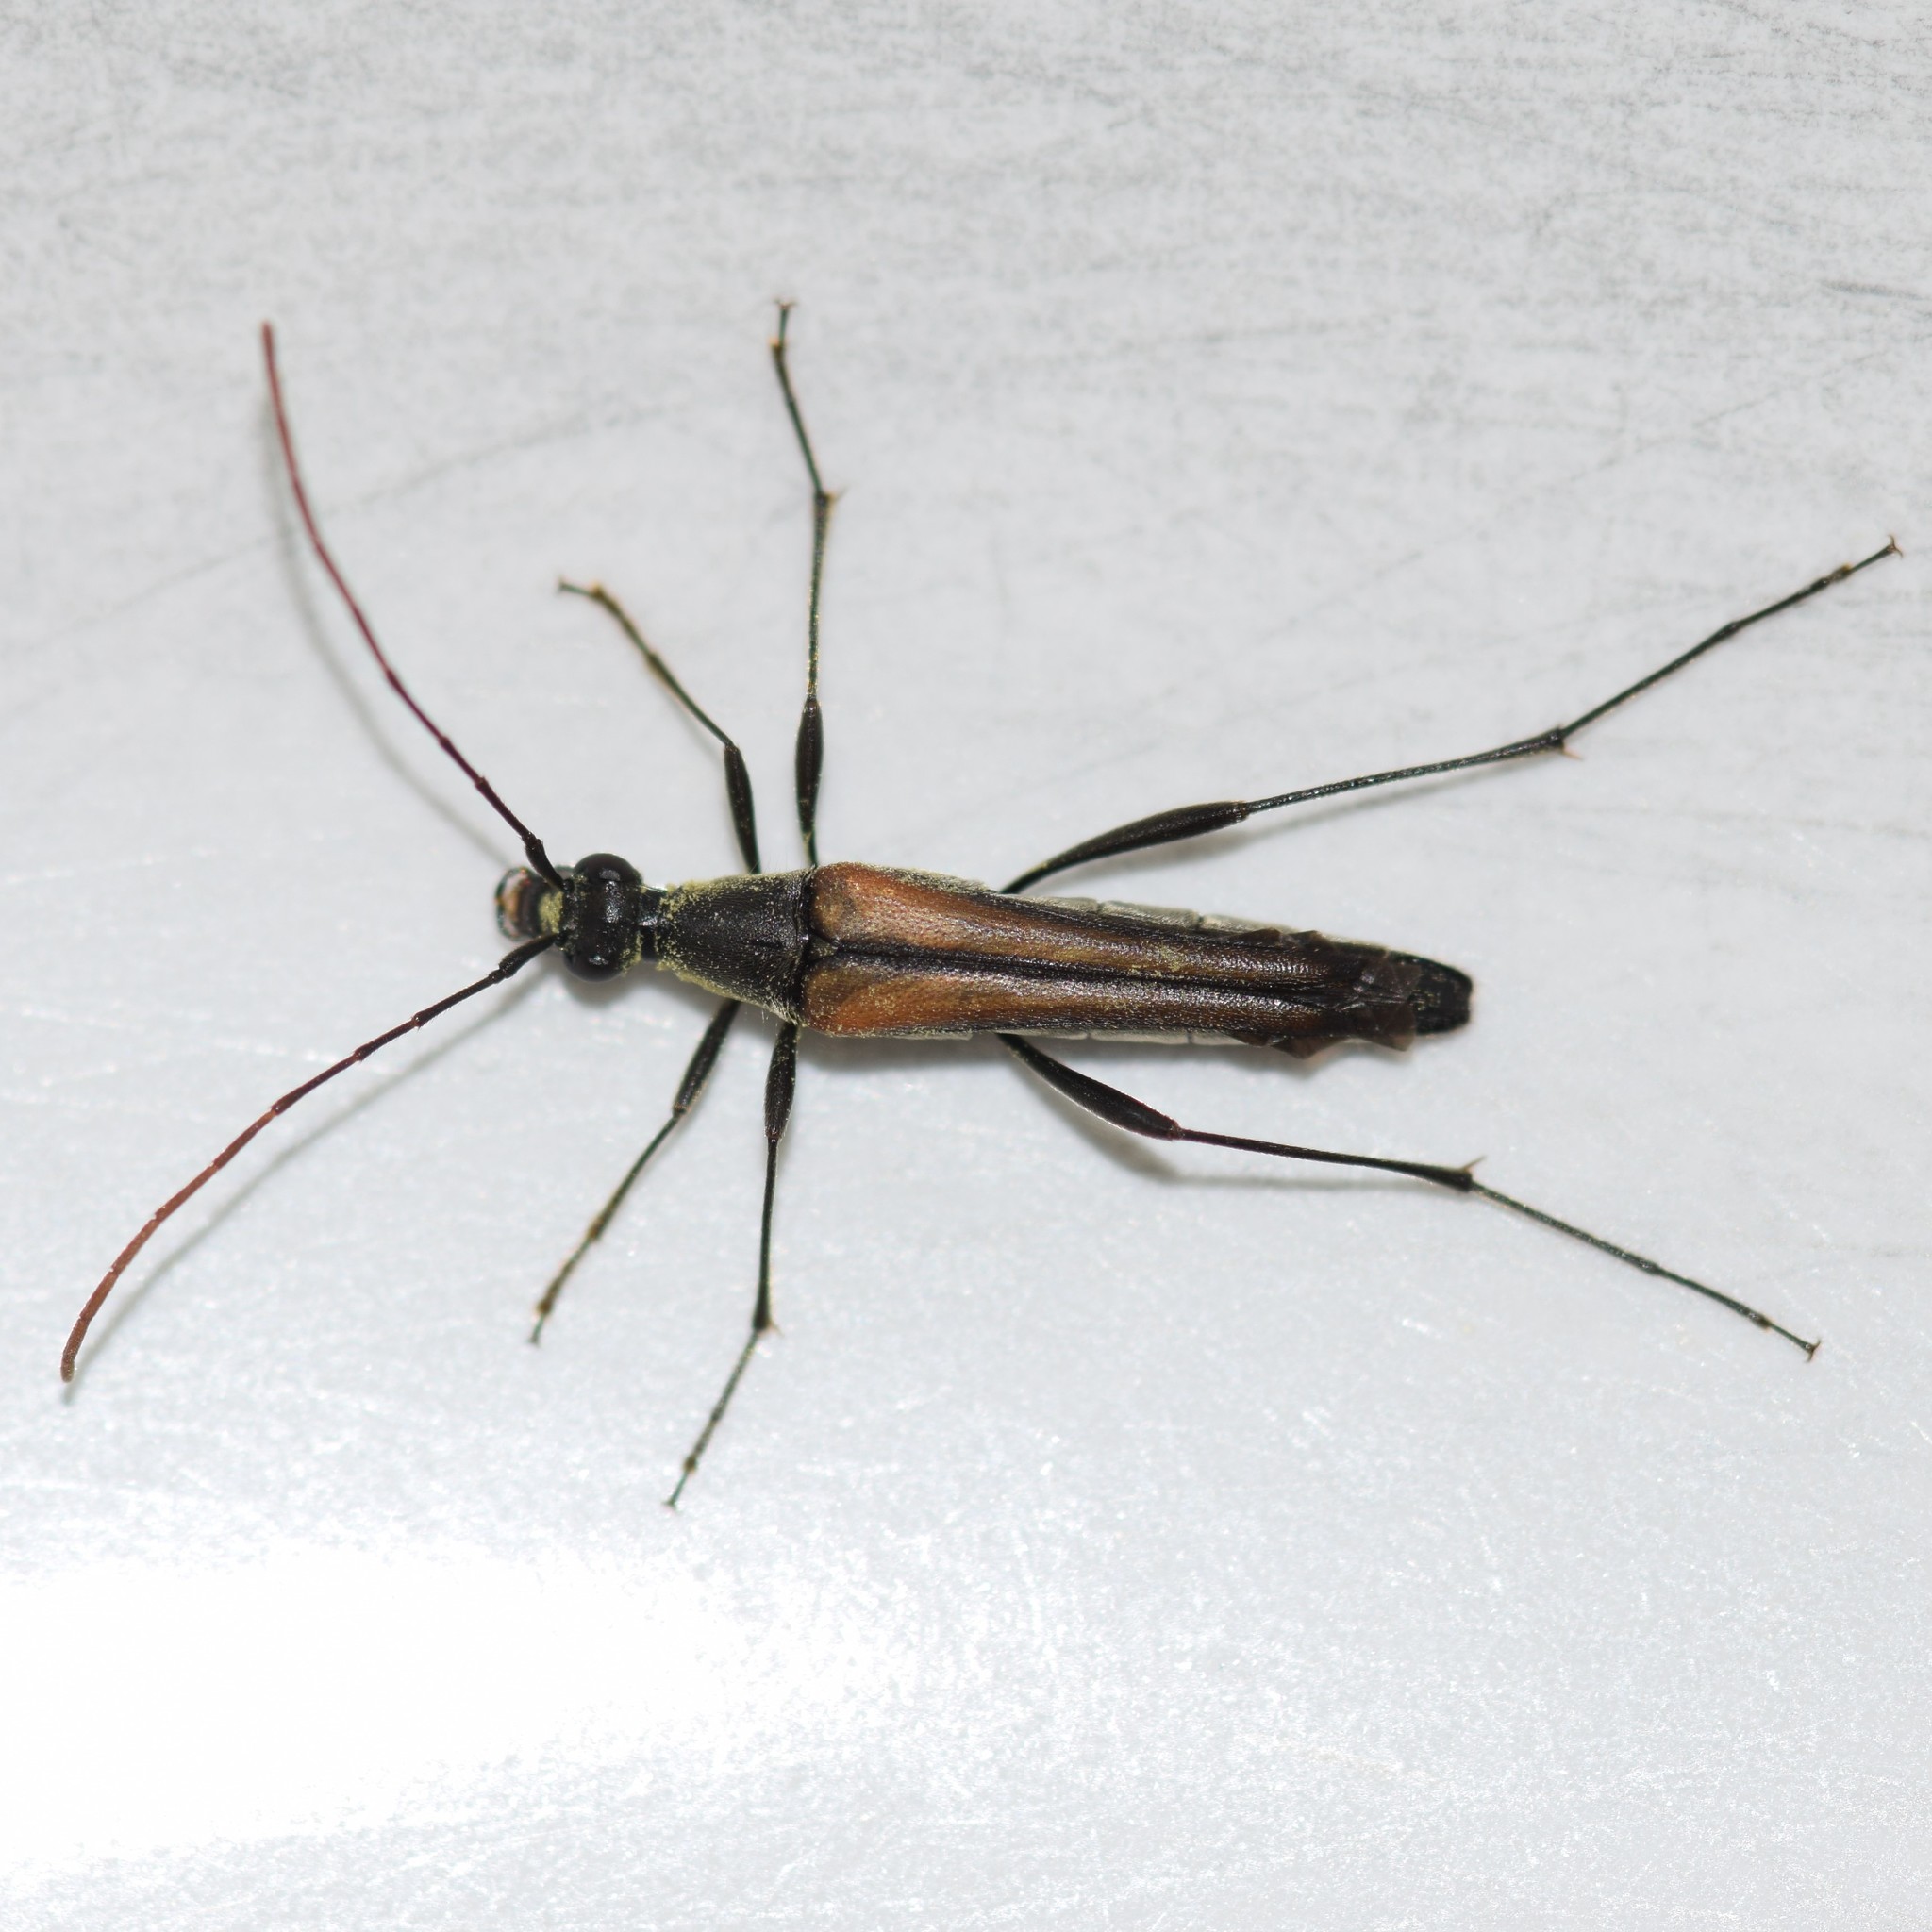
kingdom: Animalia
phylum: Arthropoda
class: Insecta
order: Coleoptera
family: Cerambycidae
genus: Strangalia
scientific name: Strangalia acuminata
